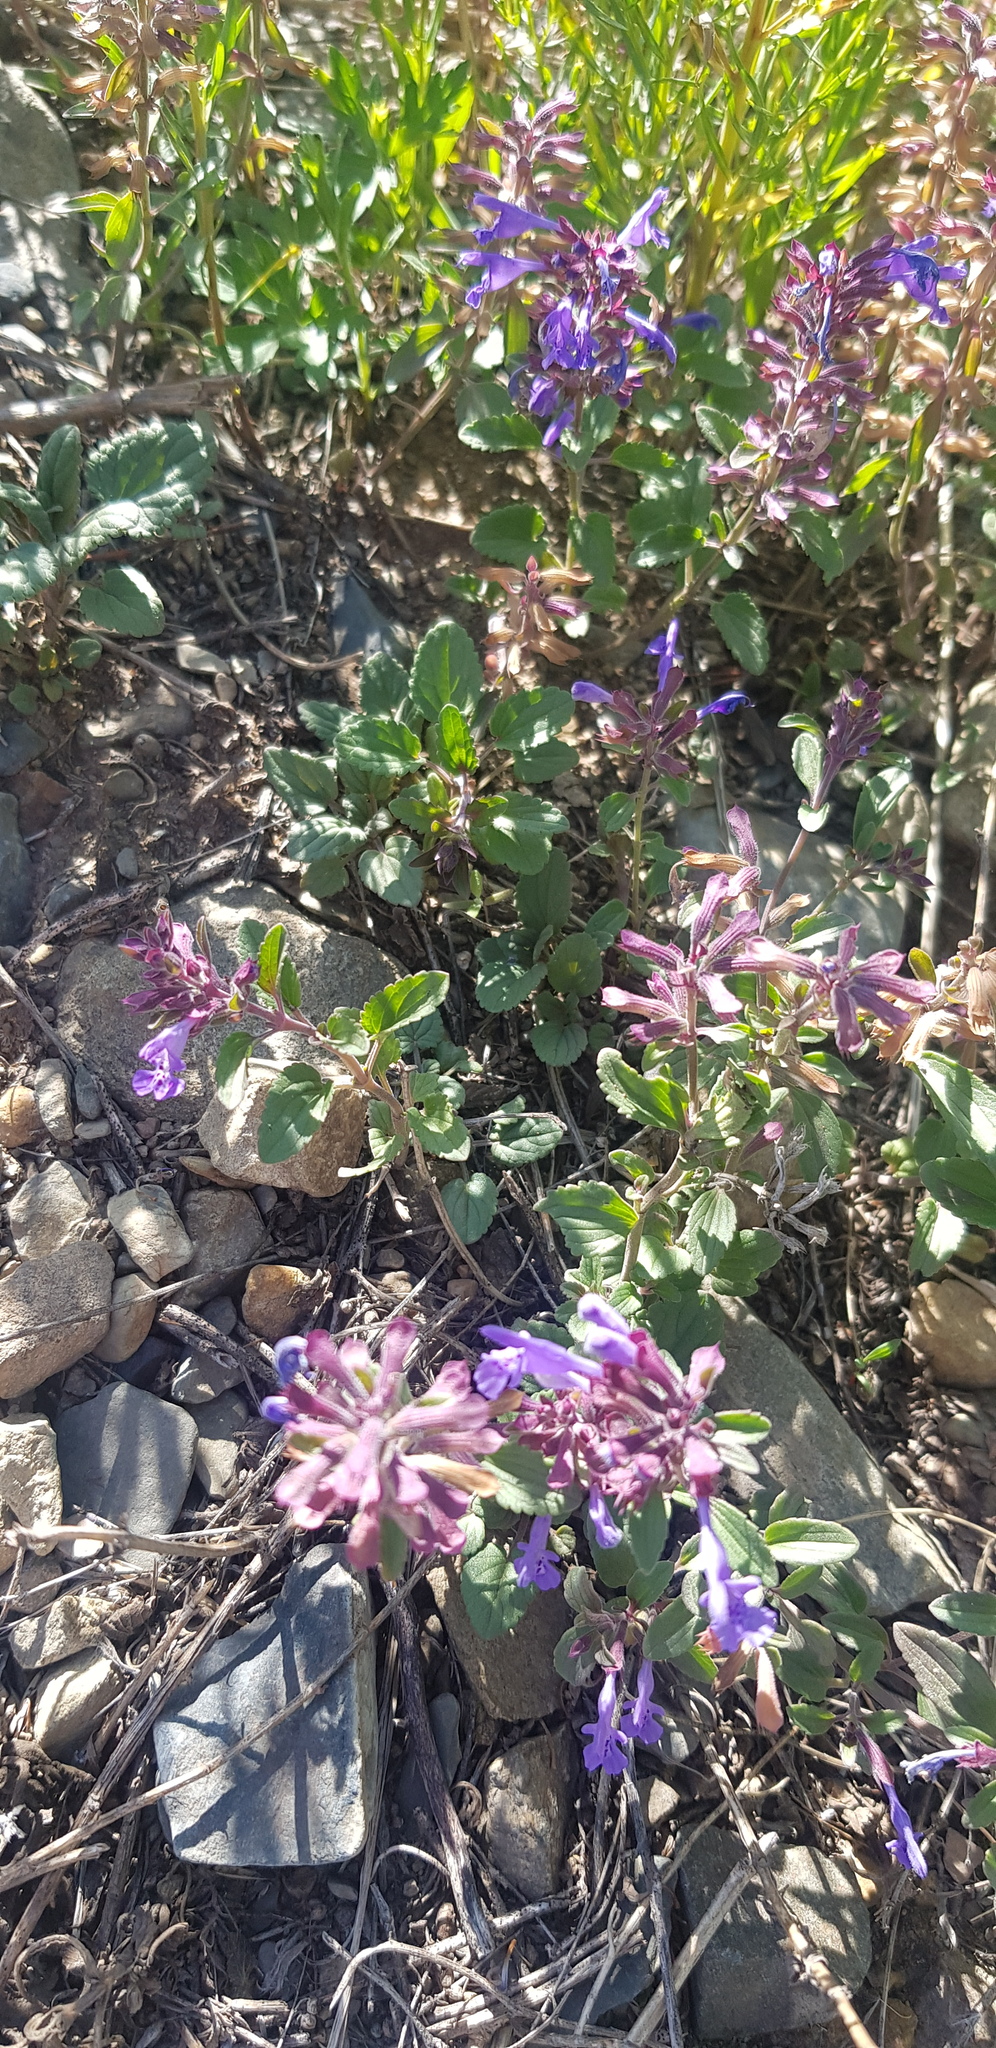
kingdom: Plantae
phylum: Tracheophyta
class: Magnoliopsida
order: Lamiales
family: Lamiaceae
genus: Dracocephalum
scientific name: Dracocephalum nutans
